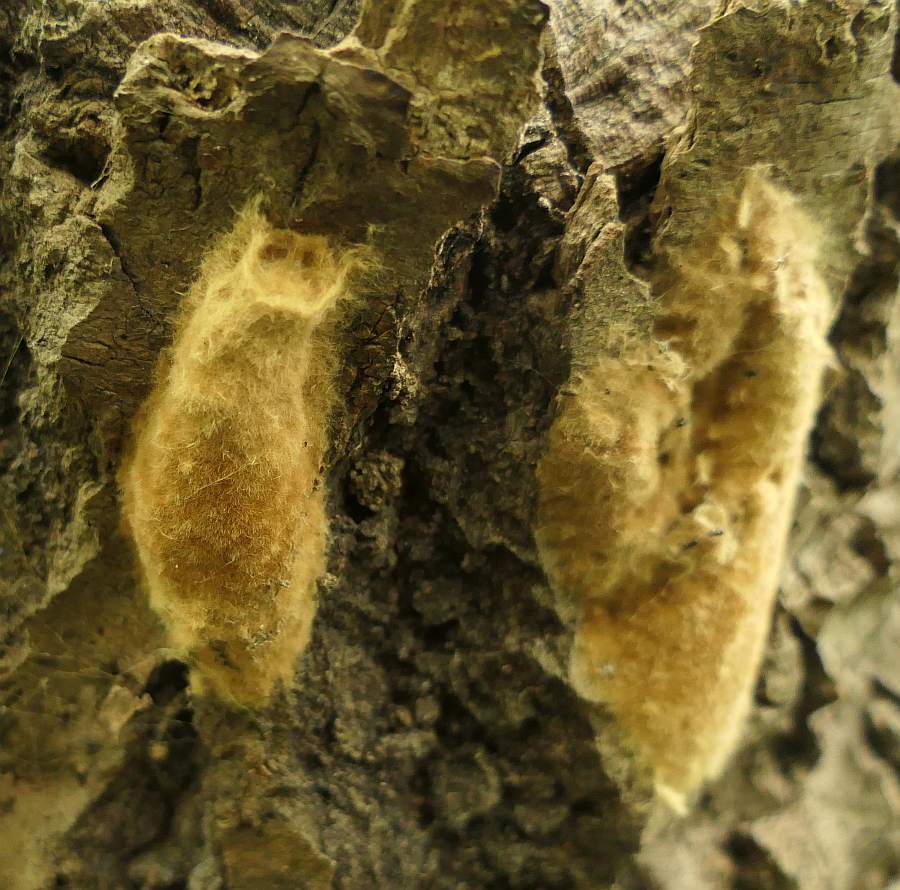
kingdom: Animalia
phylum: Arthropoda
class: Insecta
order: Lepidoptera
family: Erebidae
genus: Lymantria
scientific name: Lymantria dispar
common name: Gypsy moth
